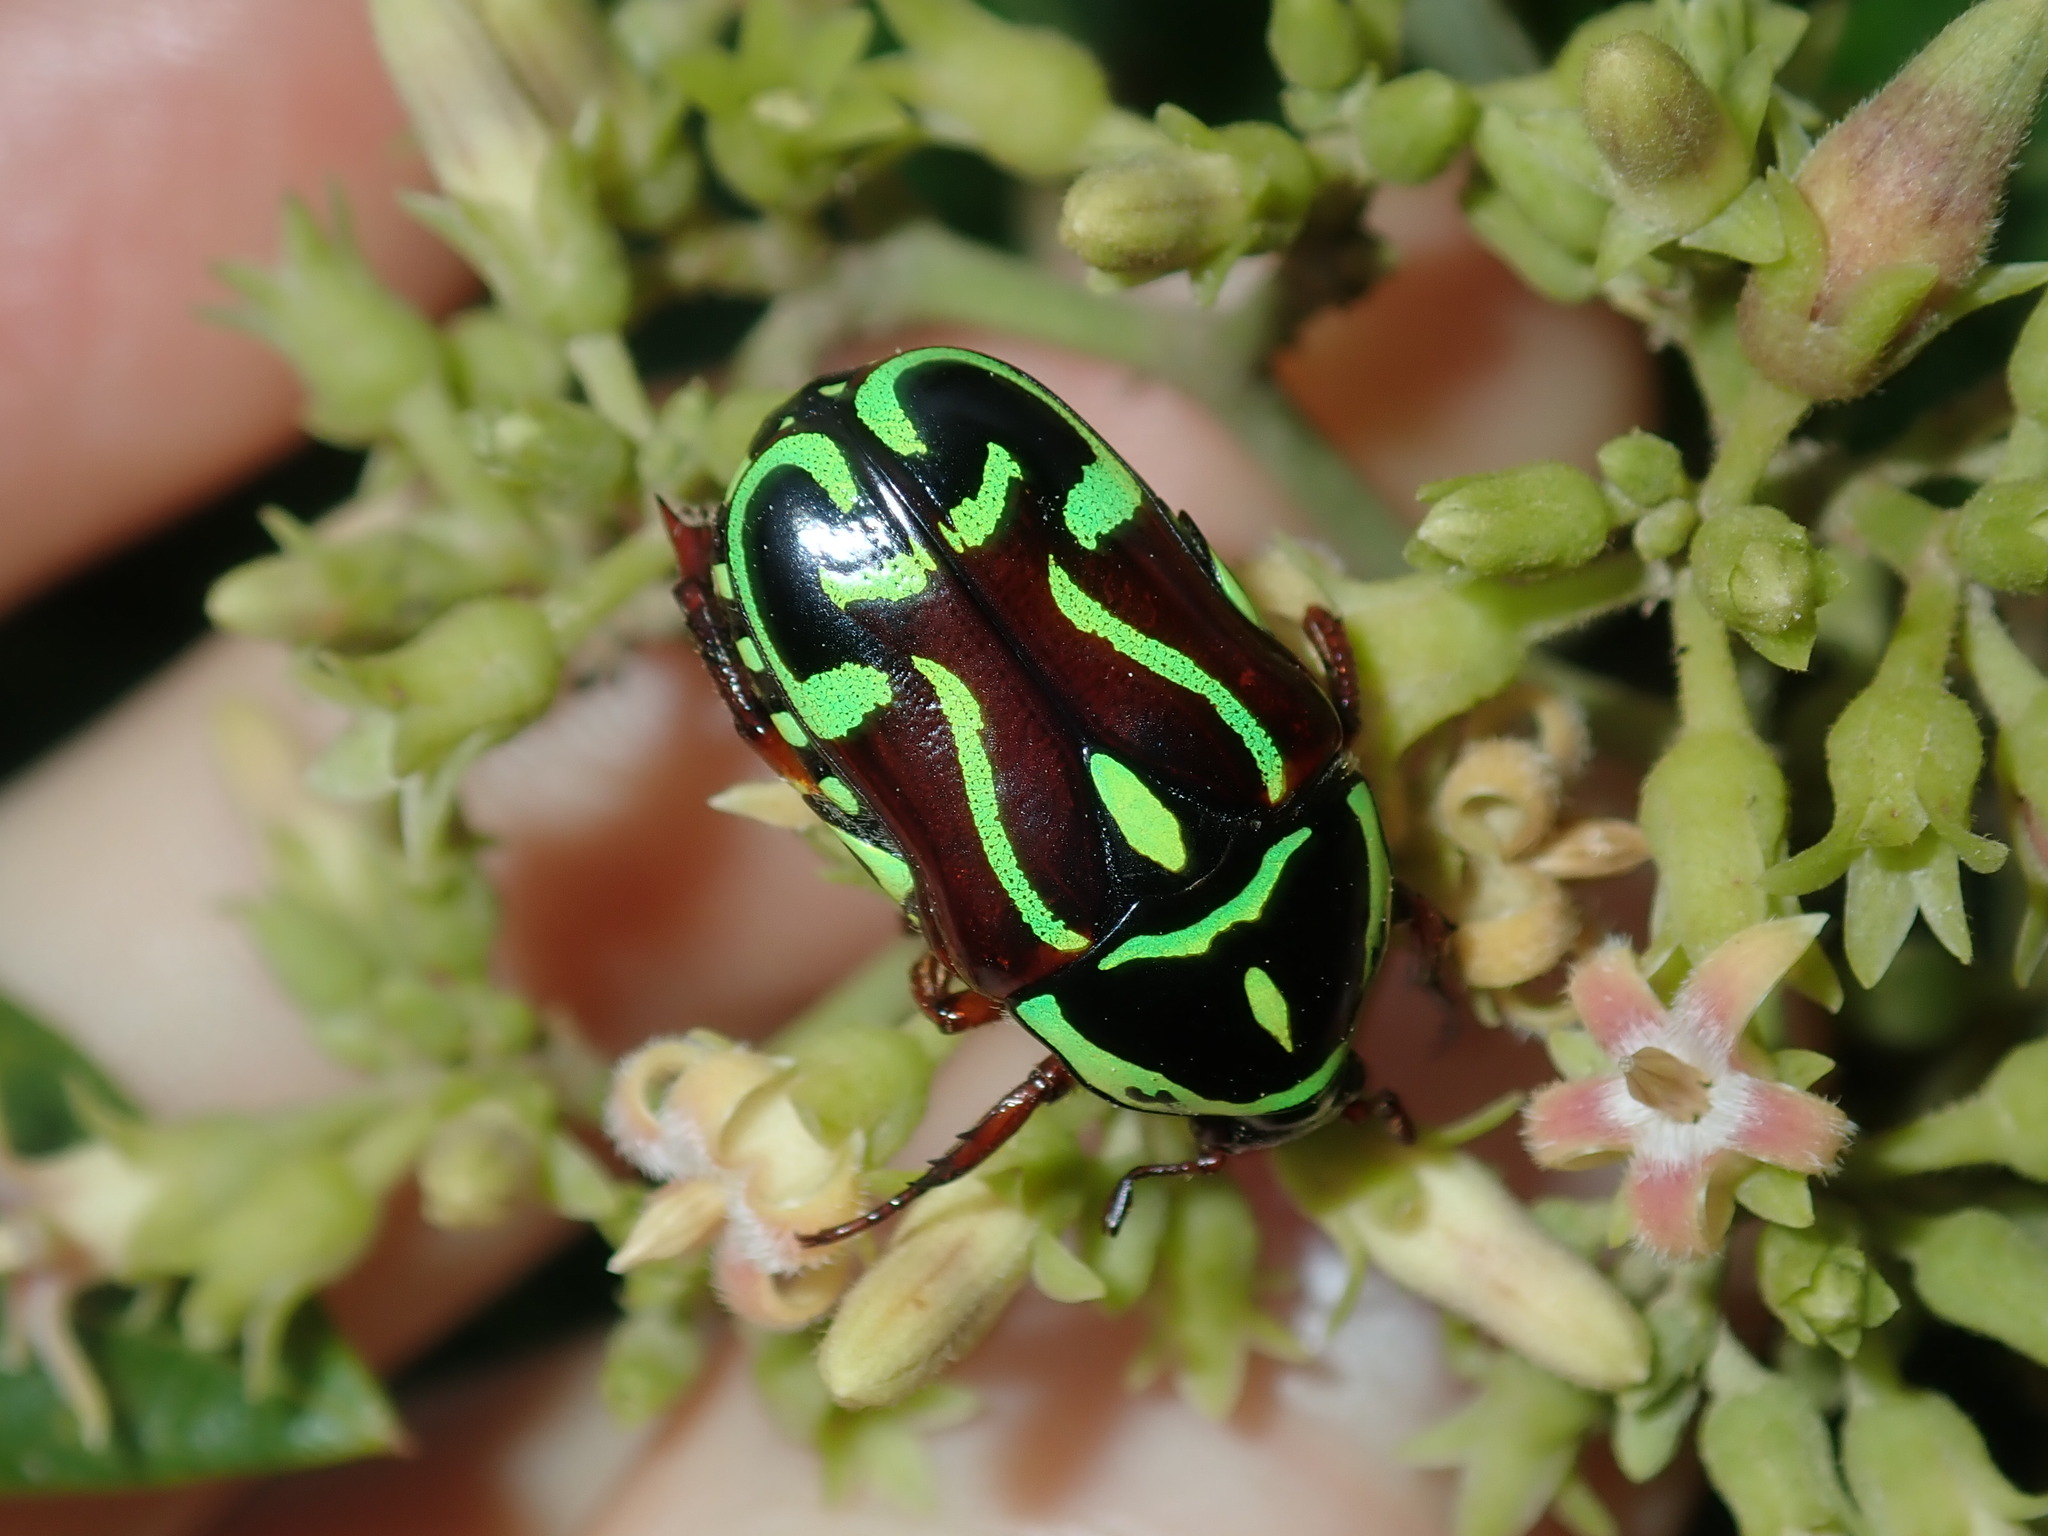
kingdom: Animalia
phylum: Arthropoda
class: Insecta
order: Coleoptera
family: Scarabaeidae
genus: Eupoecila
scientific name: Eupoecila australasiae
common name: Fiddler beetle
